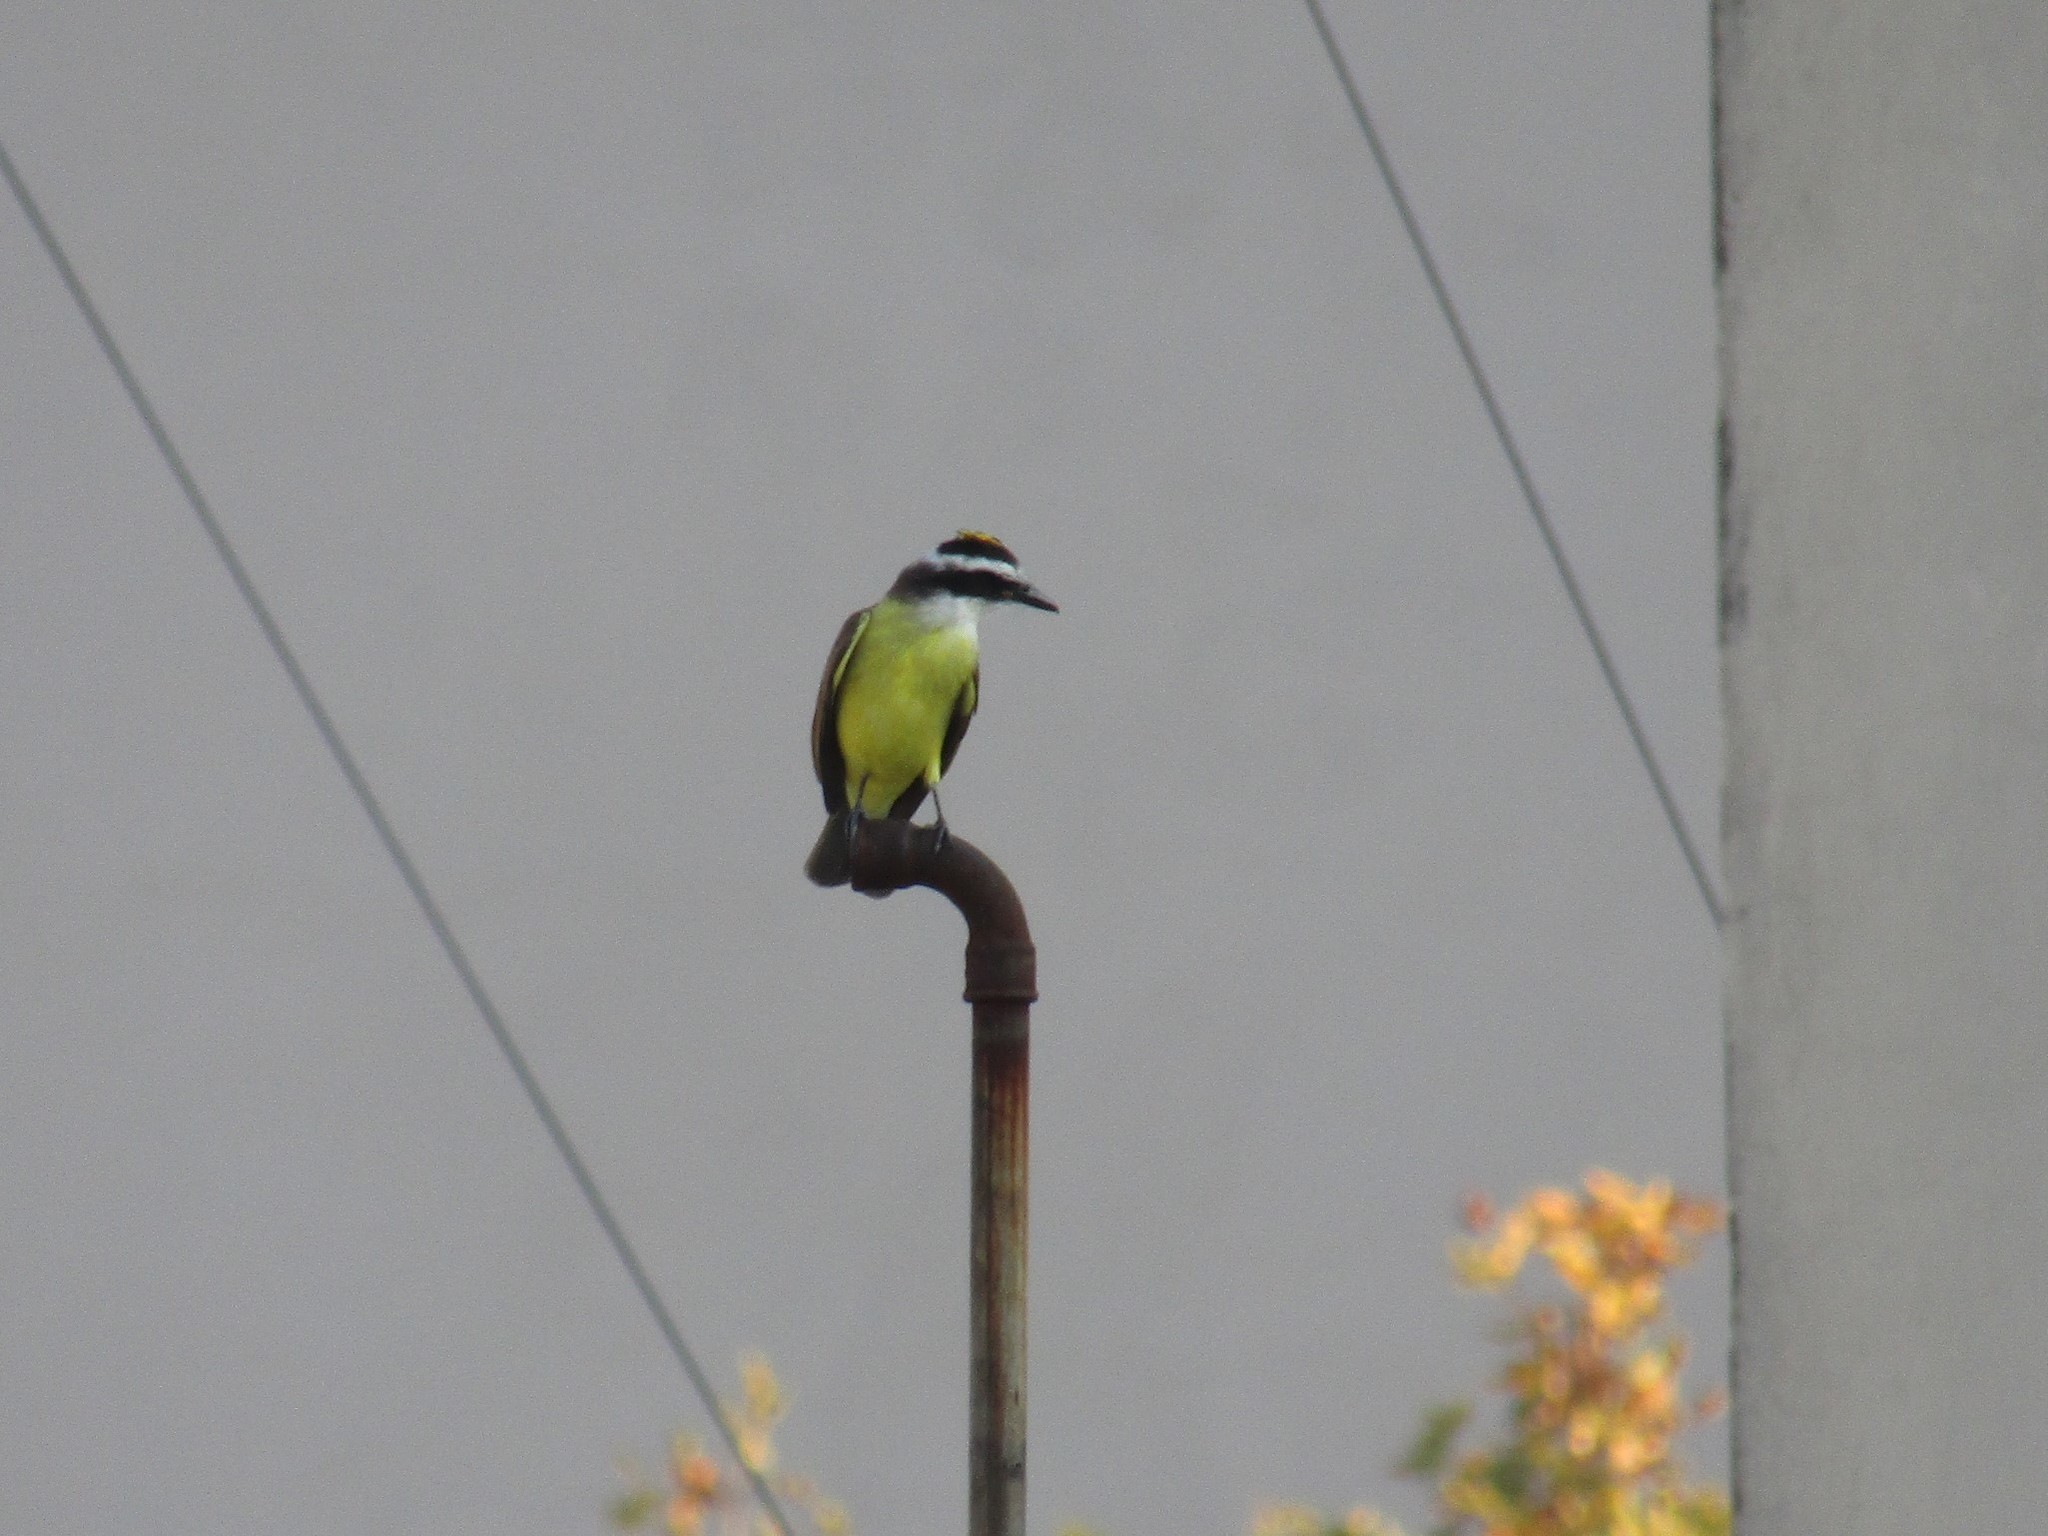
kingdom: Animalia
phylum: Chordata
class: Aves
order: Passeriformes
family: Tyrannidae
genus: Pitangus
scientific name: Pitangus sulphuratus
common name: Great kiskadee
